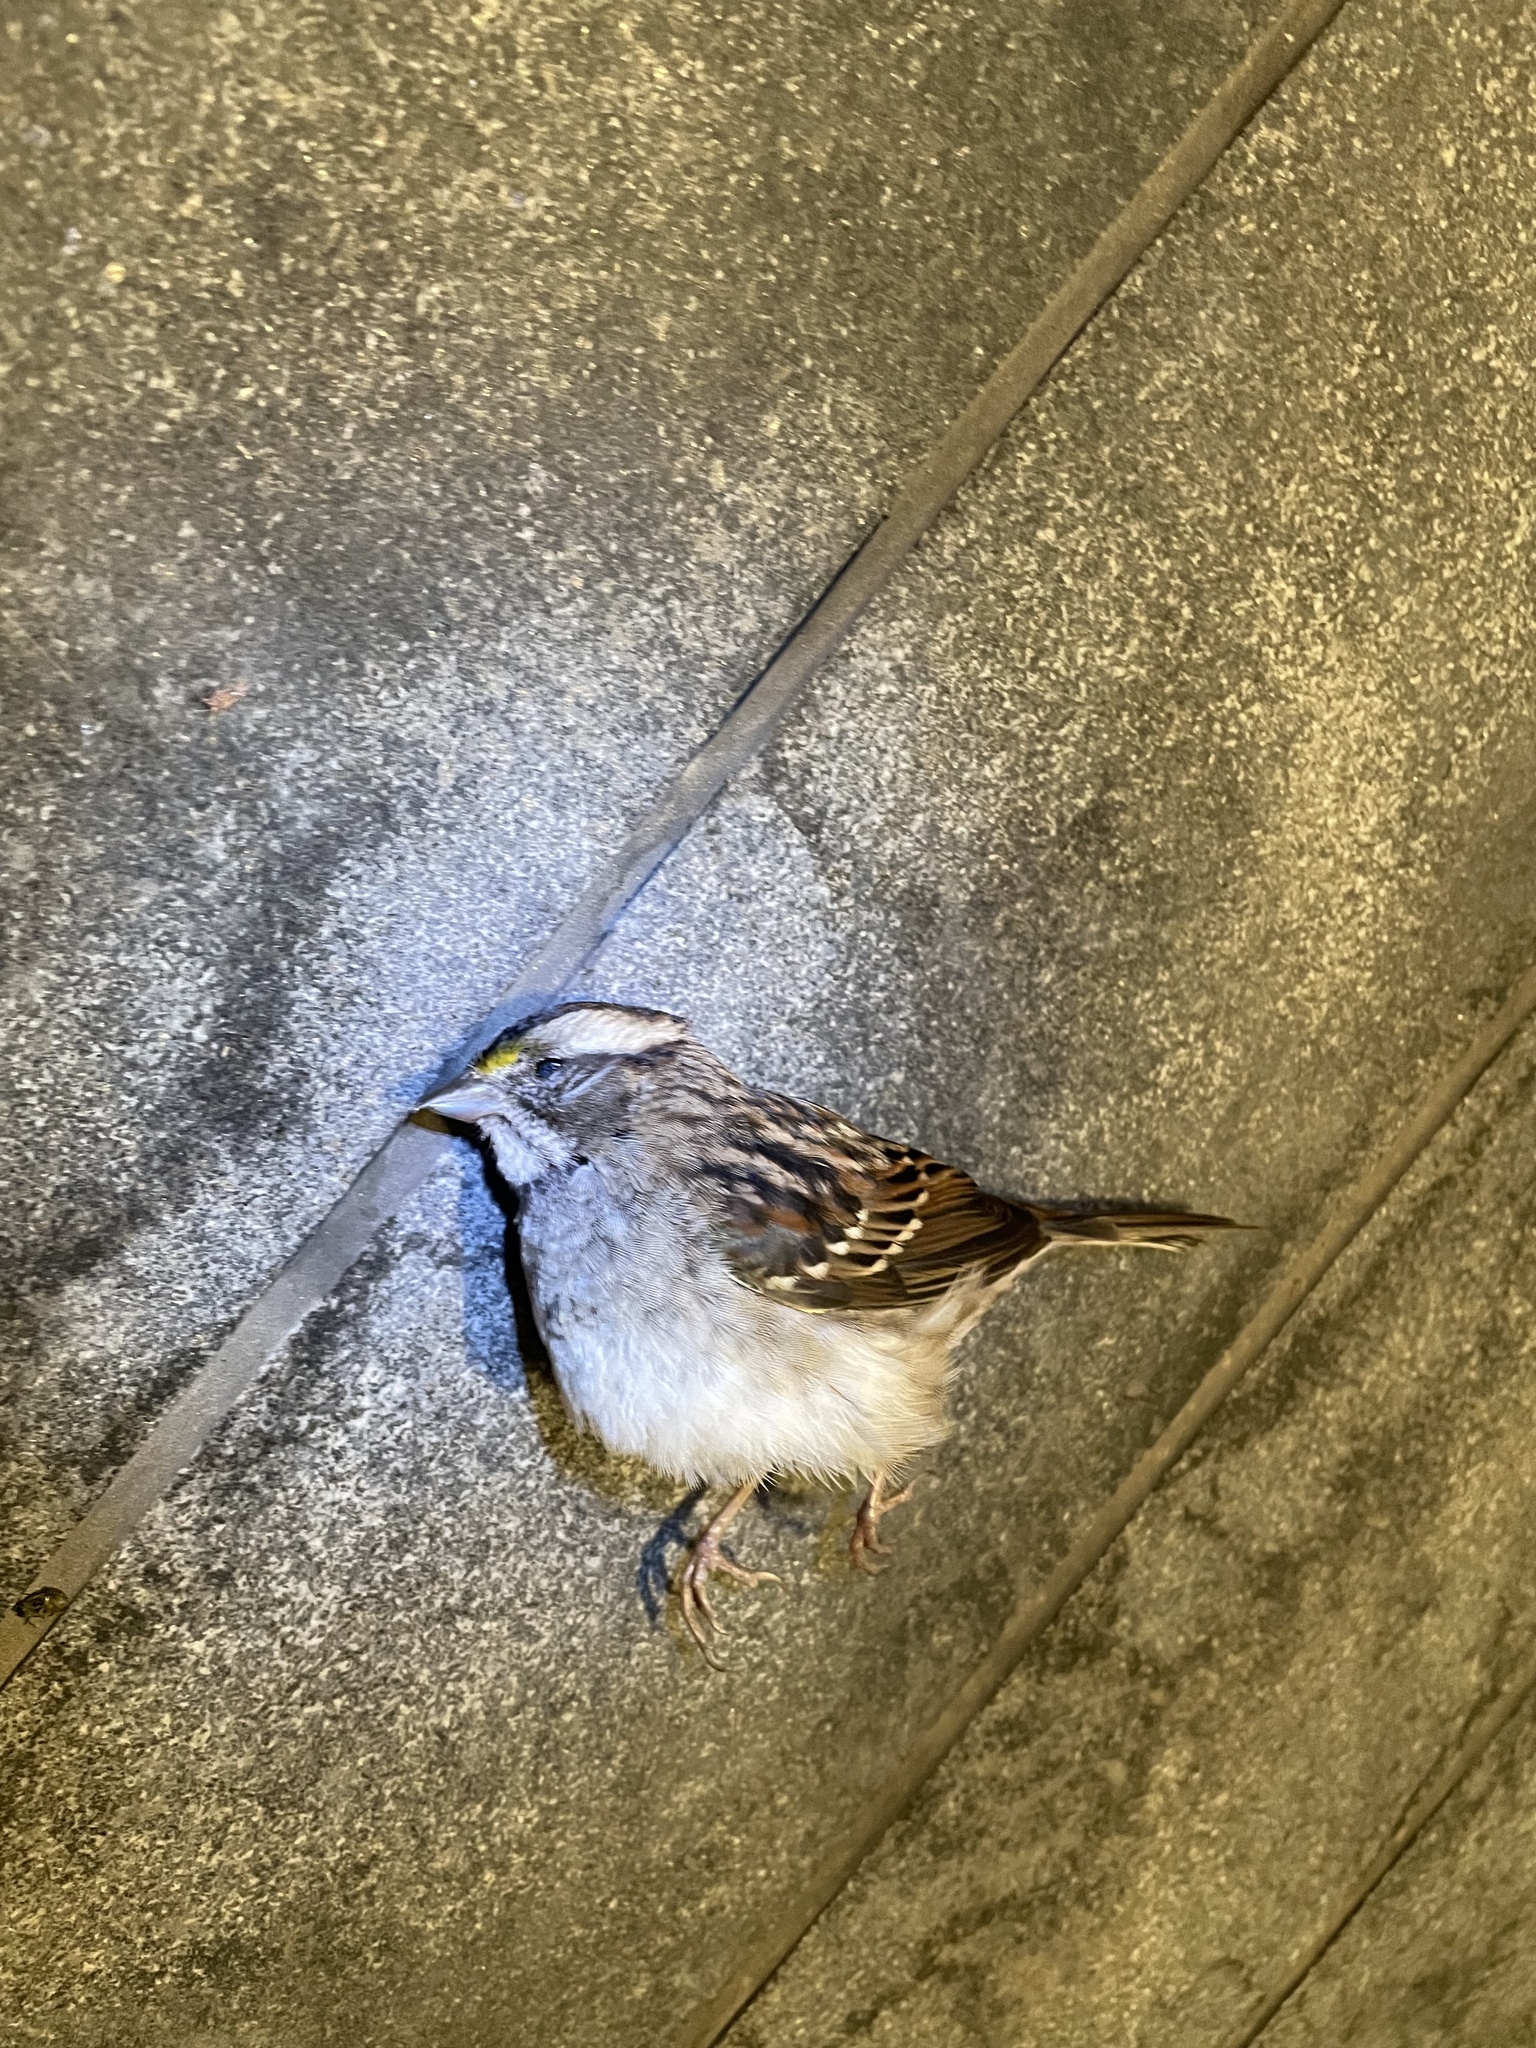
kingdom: Animalia
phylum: Chordata
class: Aves
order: Passeriformes
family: Passerellidae
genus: Zonotrichia
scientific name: Zonotrichia albicollis
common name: White-throated sparrow
